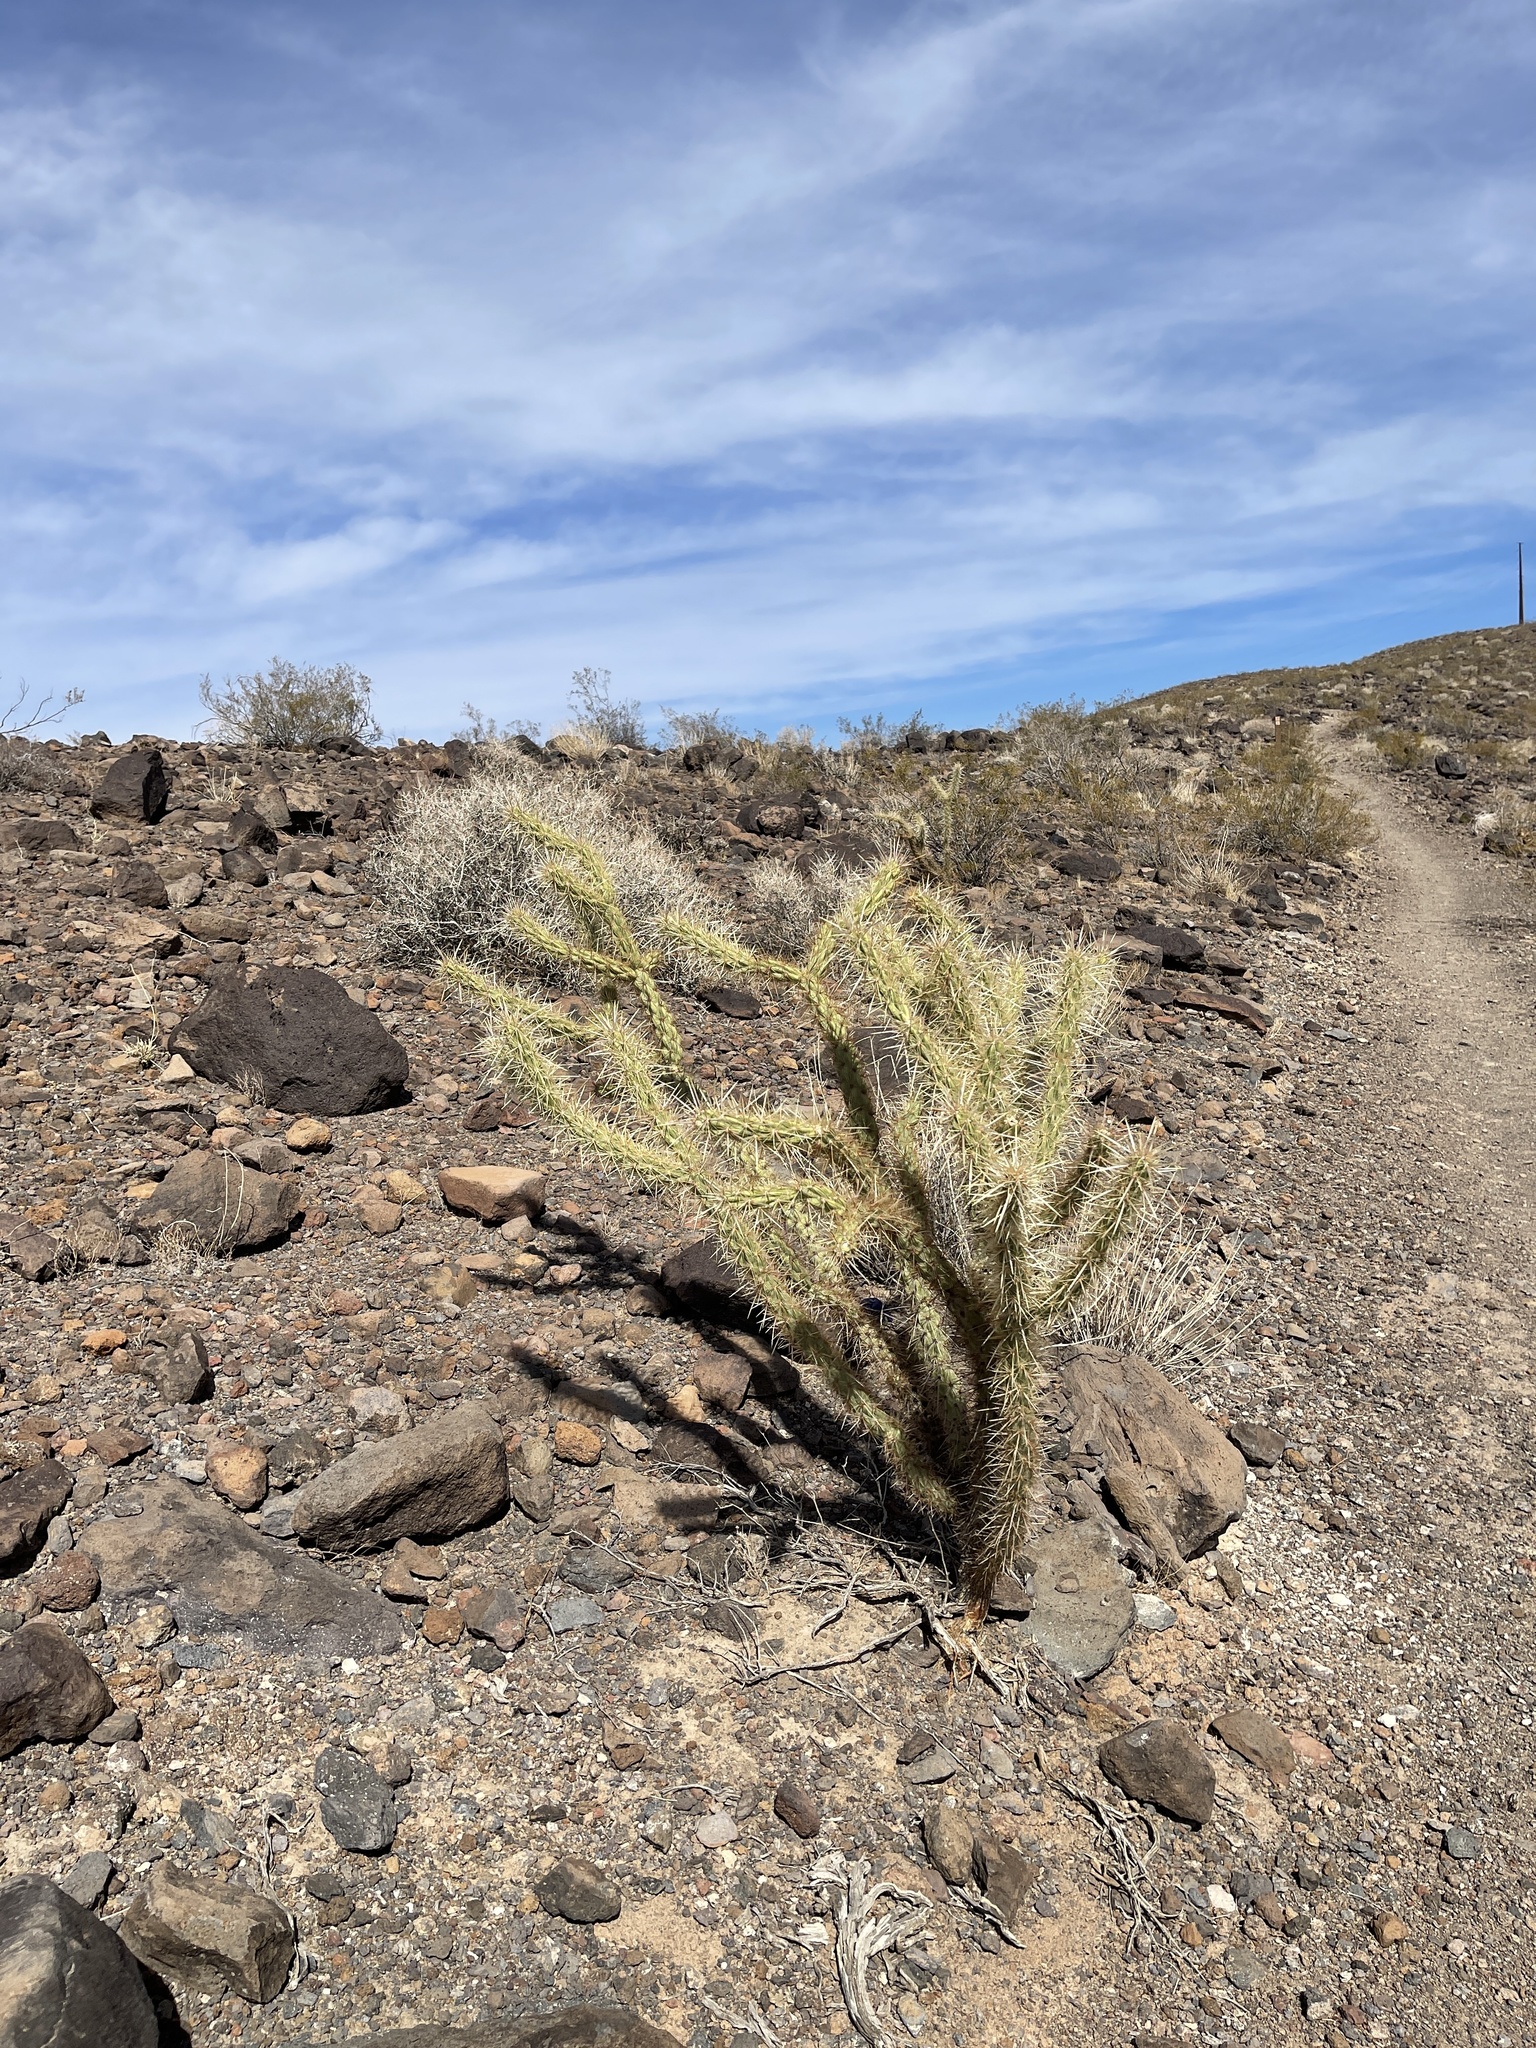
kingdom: Plantae
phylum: Tracheophyta
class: Magnoliopsida
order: Caryophyllales
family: Cactaceae
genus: Cylindropuntia
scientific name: Cylindropuntia acanthocarpa
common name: Buckhorn cholla
